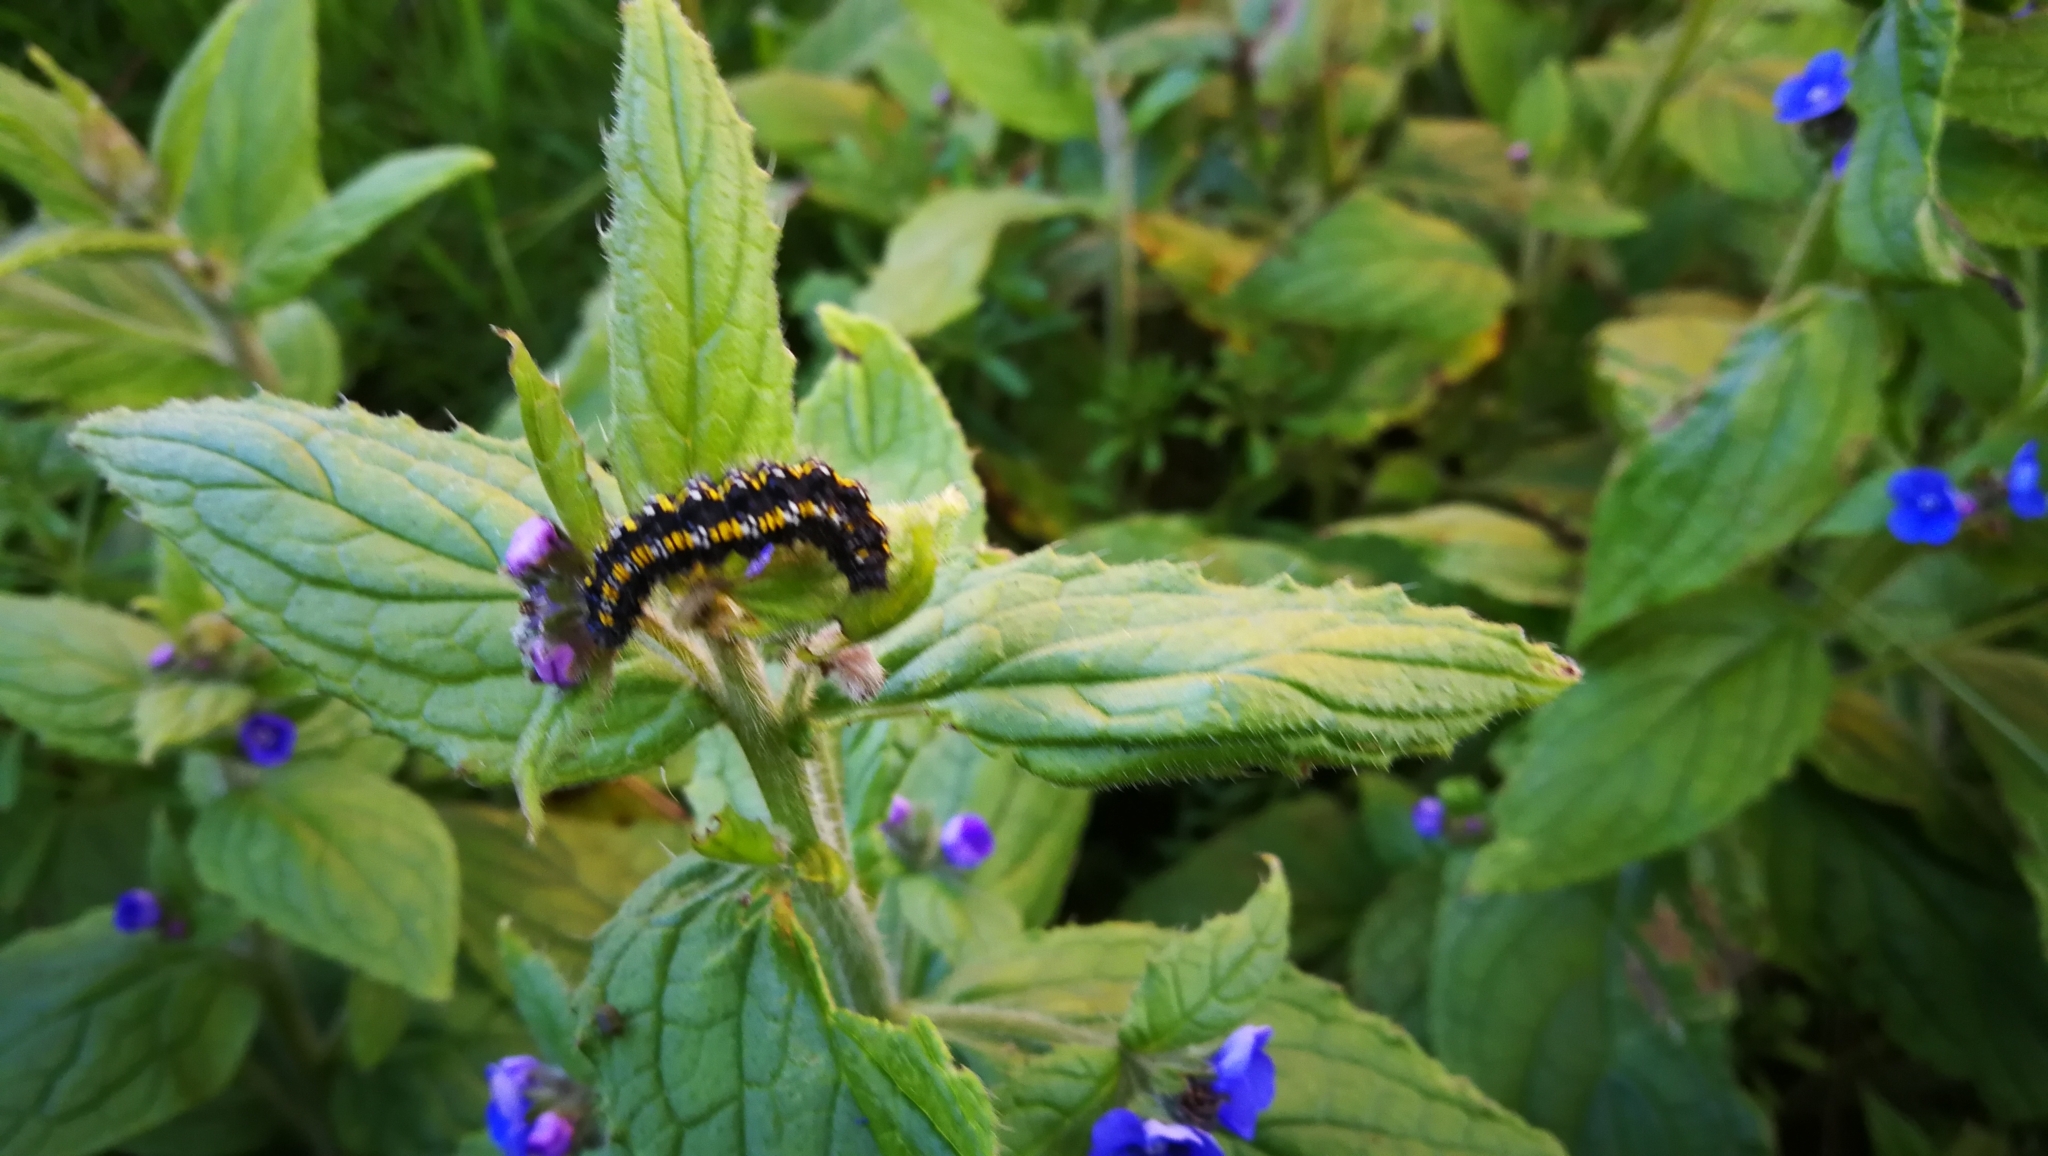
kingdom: Animalia
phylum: Arthropoda
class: Insecta
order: Lepidoptera
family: Erebidae
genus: Callimorpha
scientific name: Callimorpha dominula
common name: Scarlet tiger
